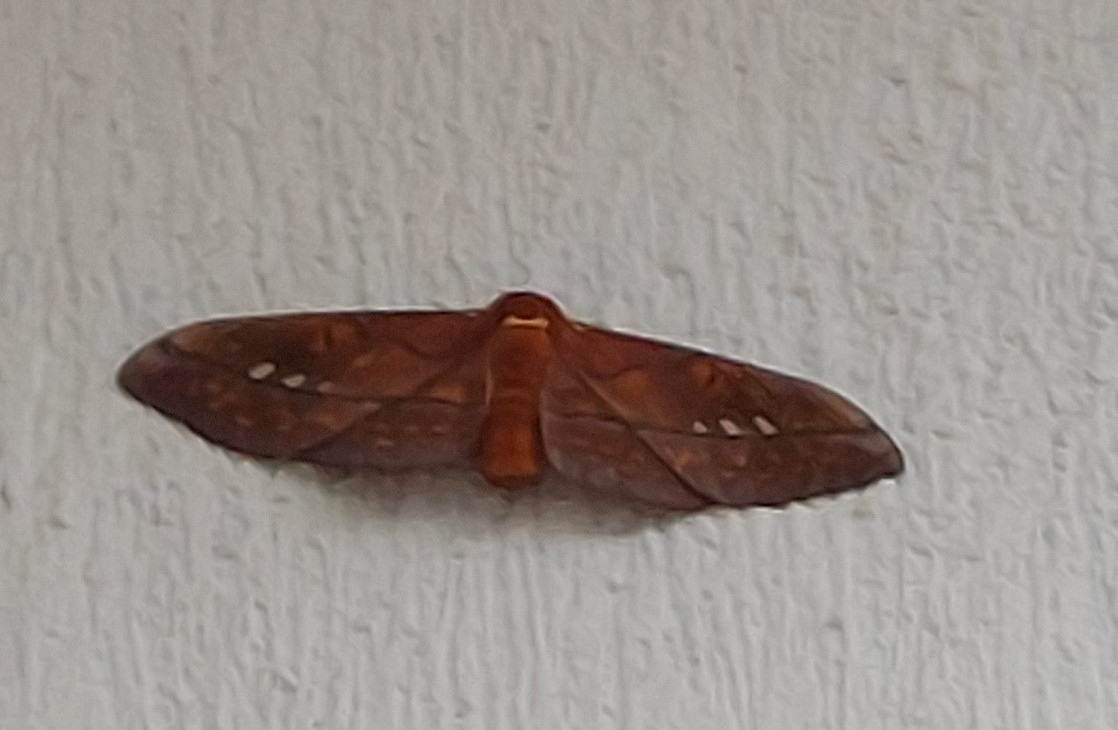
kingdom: Animalia
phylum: Arthropoda
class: Insecta
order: Lepidoptera
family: Saturniidae
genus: Procitheronia
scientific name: Procitheronia principalis
